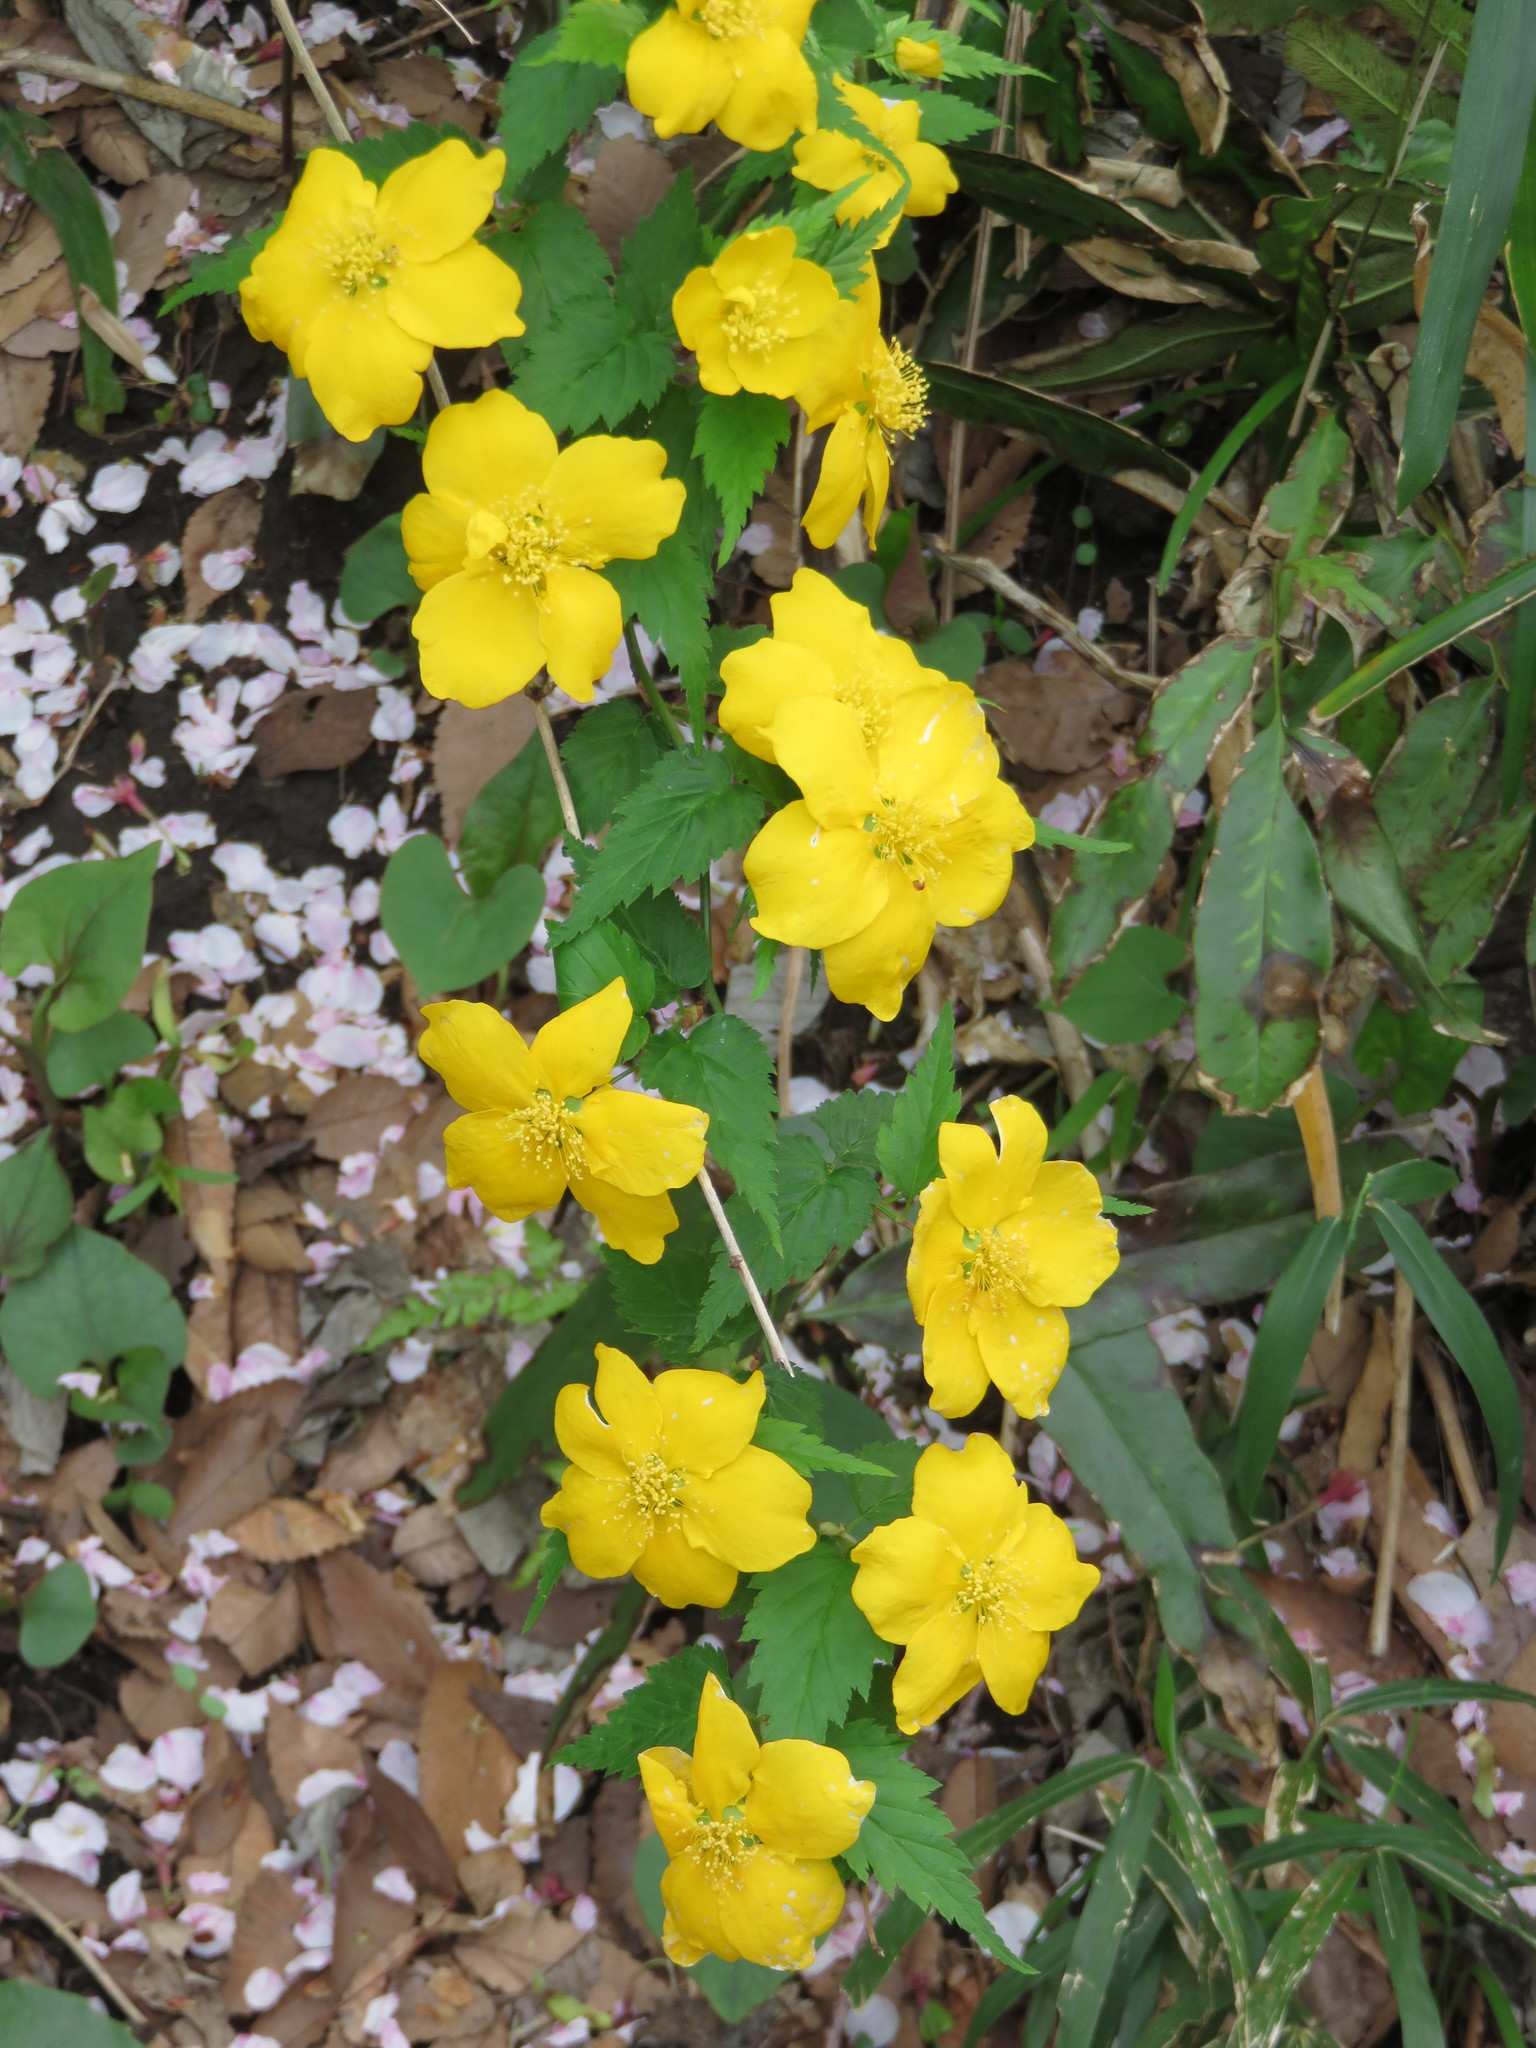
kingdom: Plantae
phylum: Tracheophyta
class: Magnoliopsida
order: Rosales
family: Rosaceae
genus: Kerria
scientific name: Kerria japonica
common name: Japanese kerria
